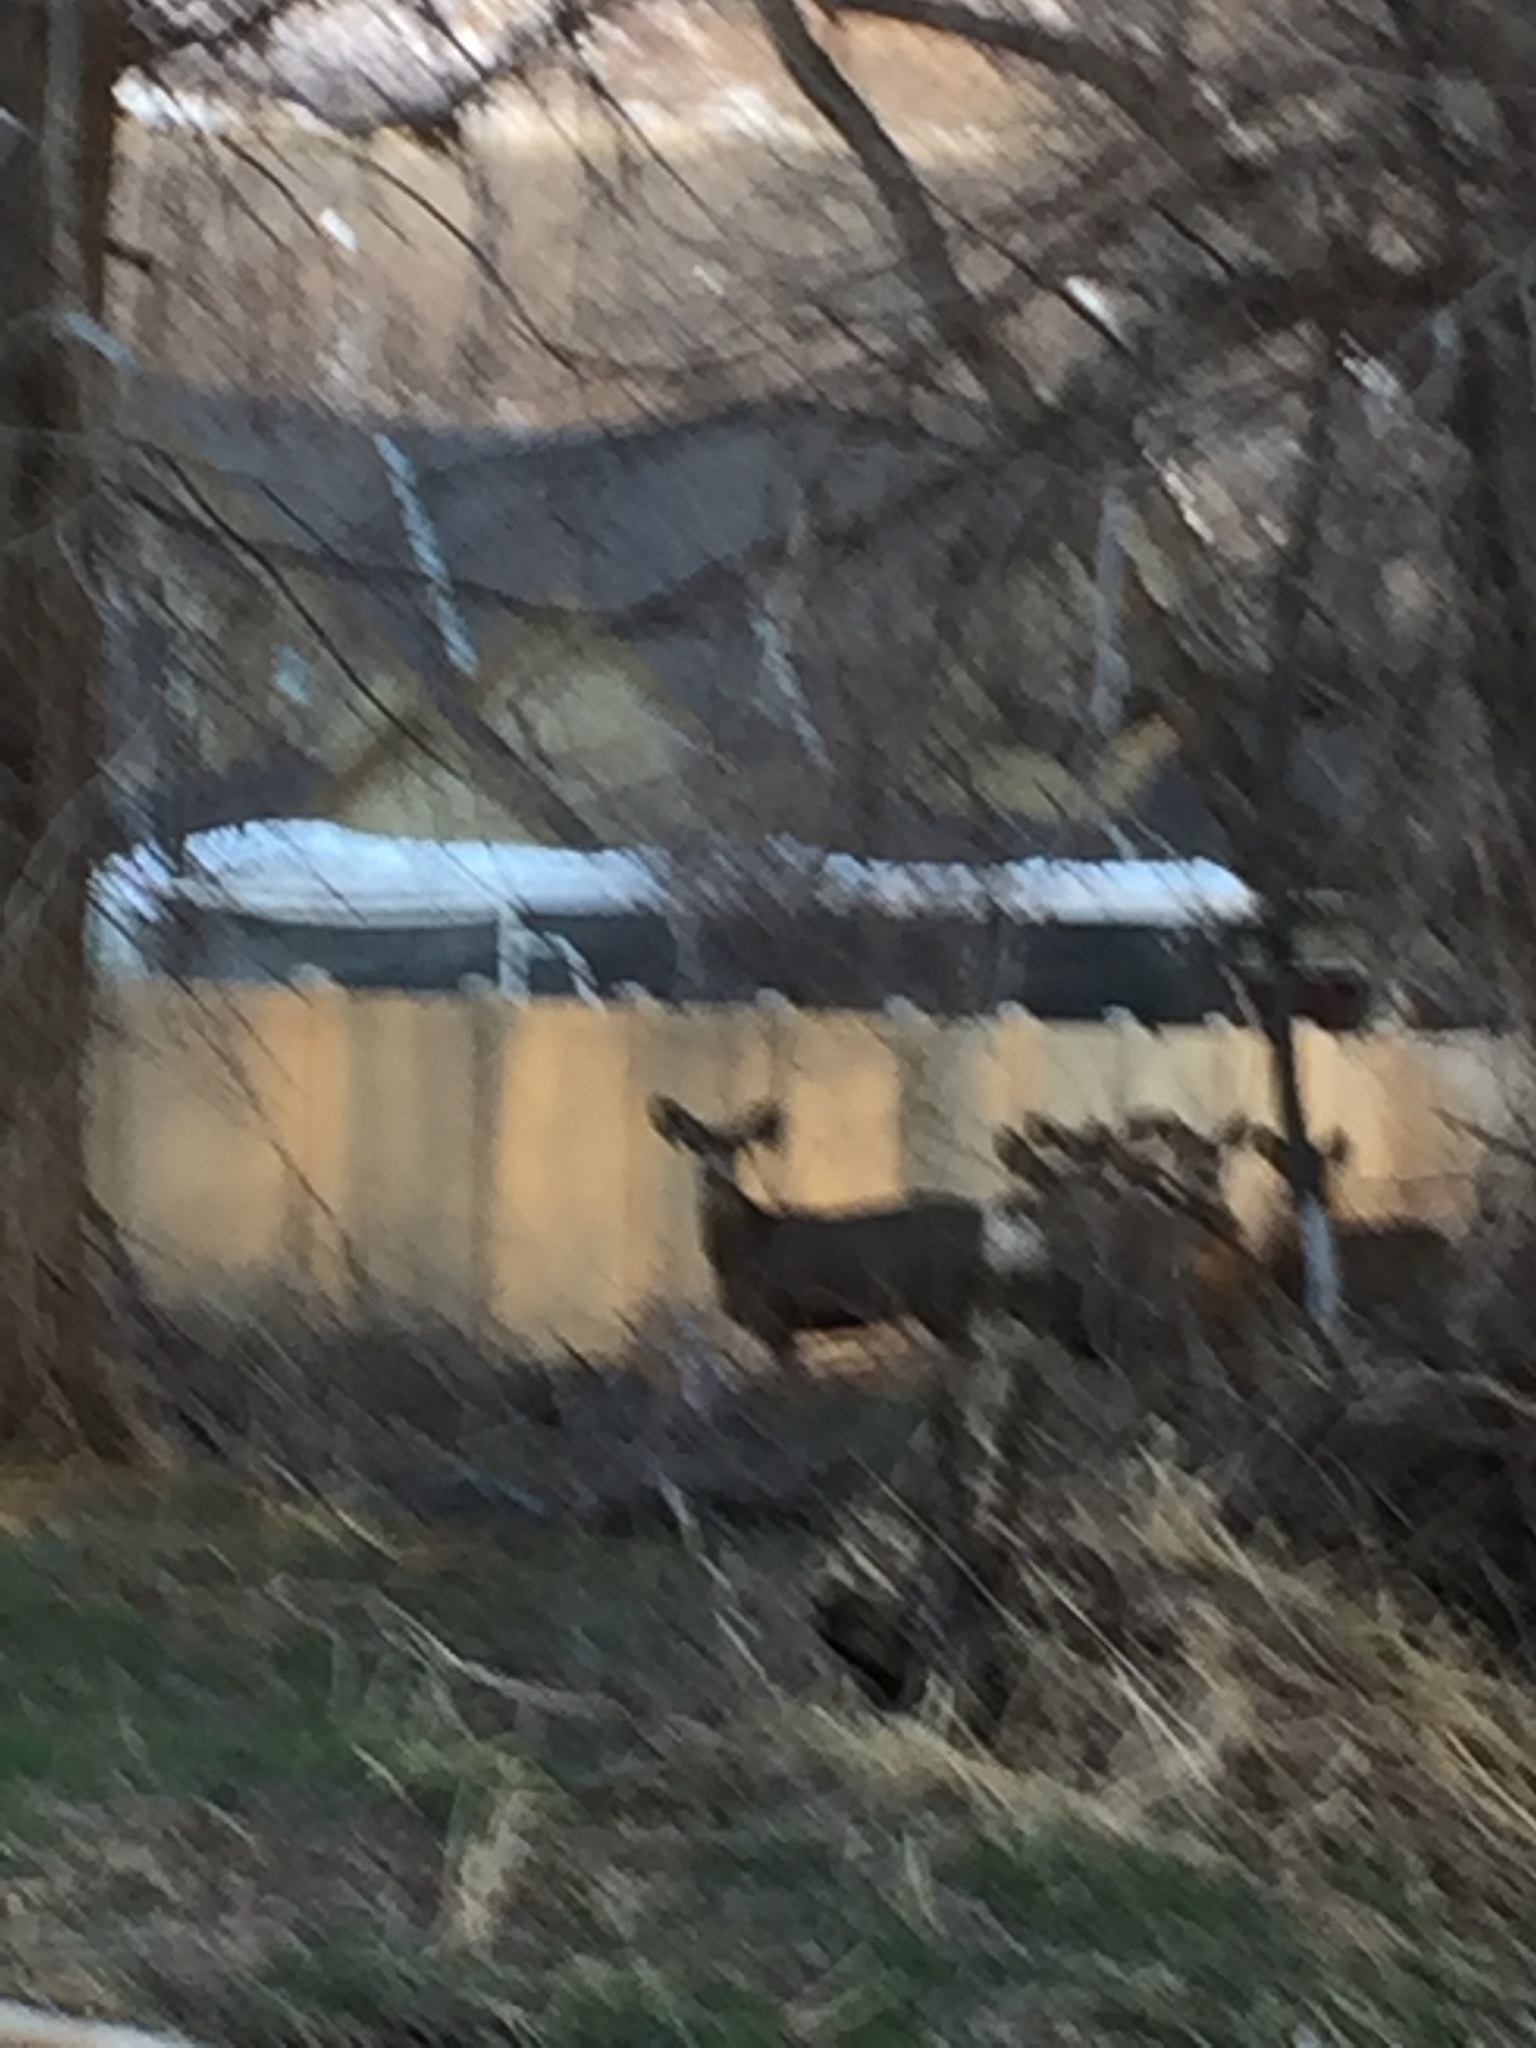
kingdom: Animalia
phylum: Chordata
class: Mammalia
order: Artiodactyla
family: Cervidae
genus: Odocoileus
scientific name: Odocoileus hemionus
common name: Mule deer
